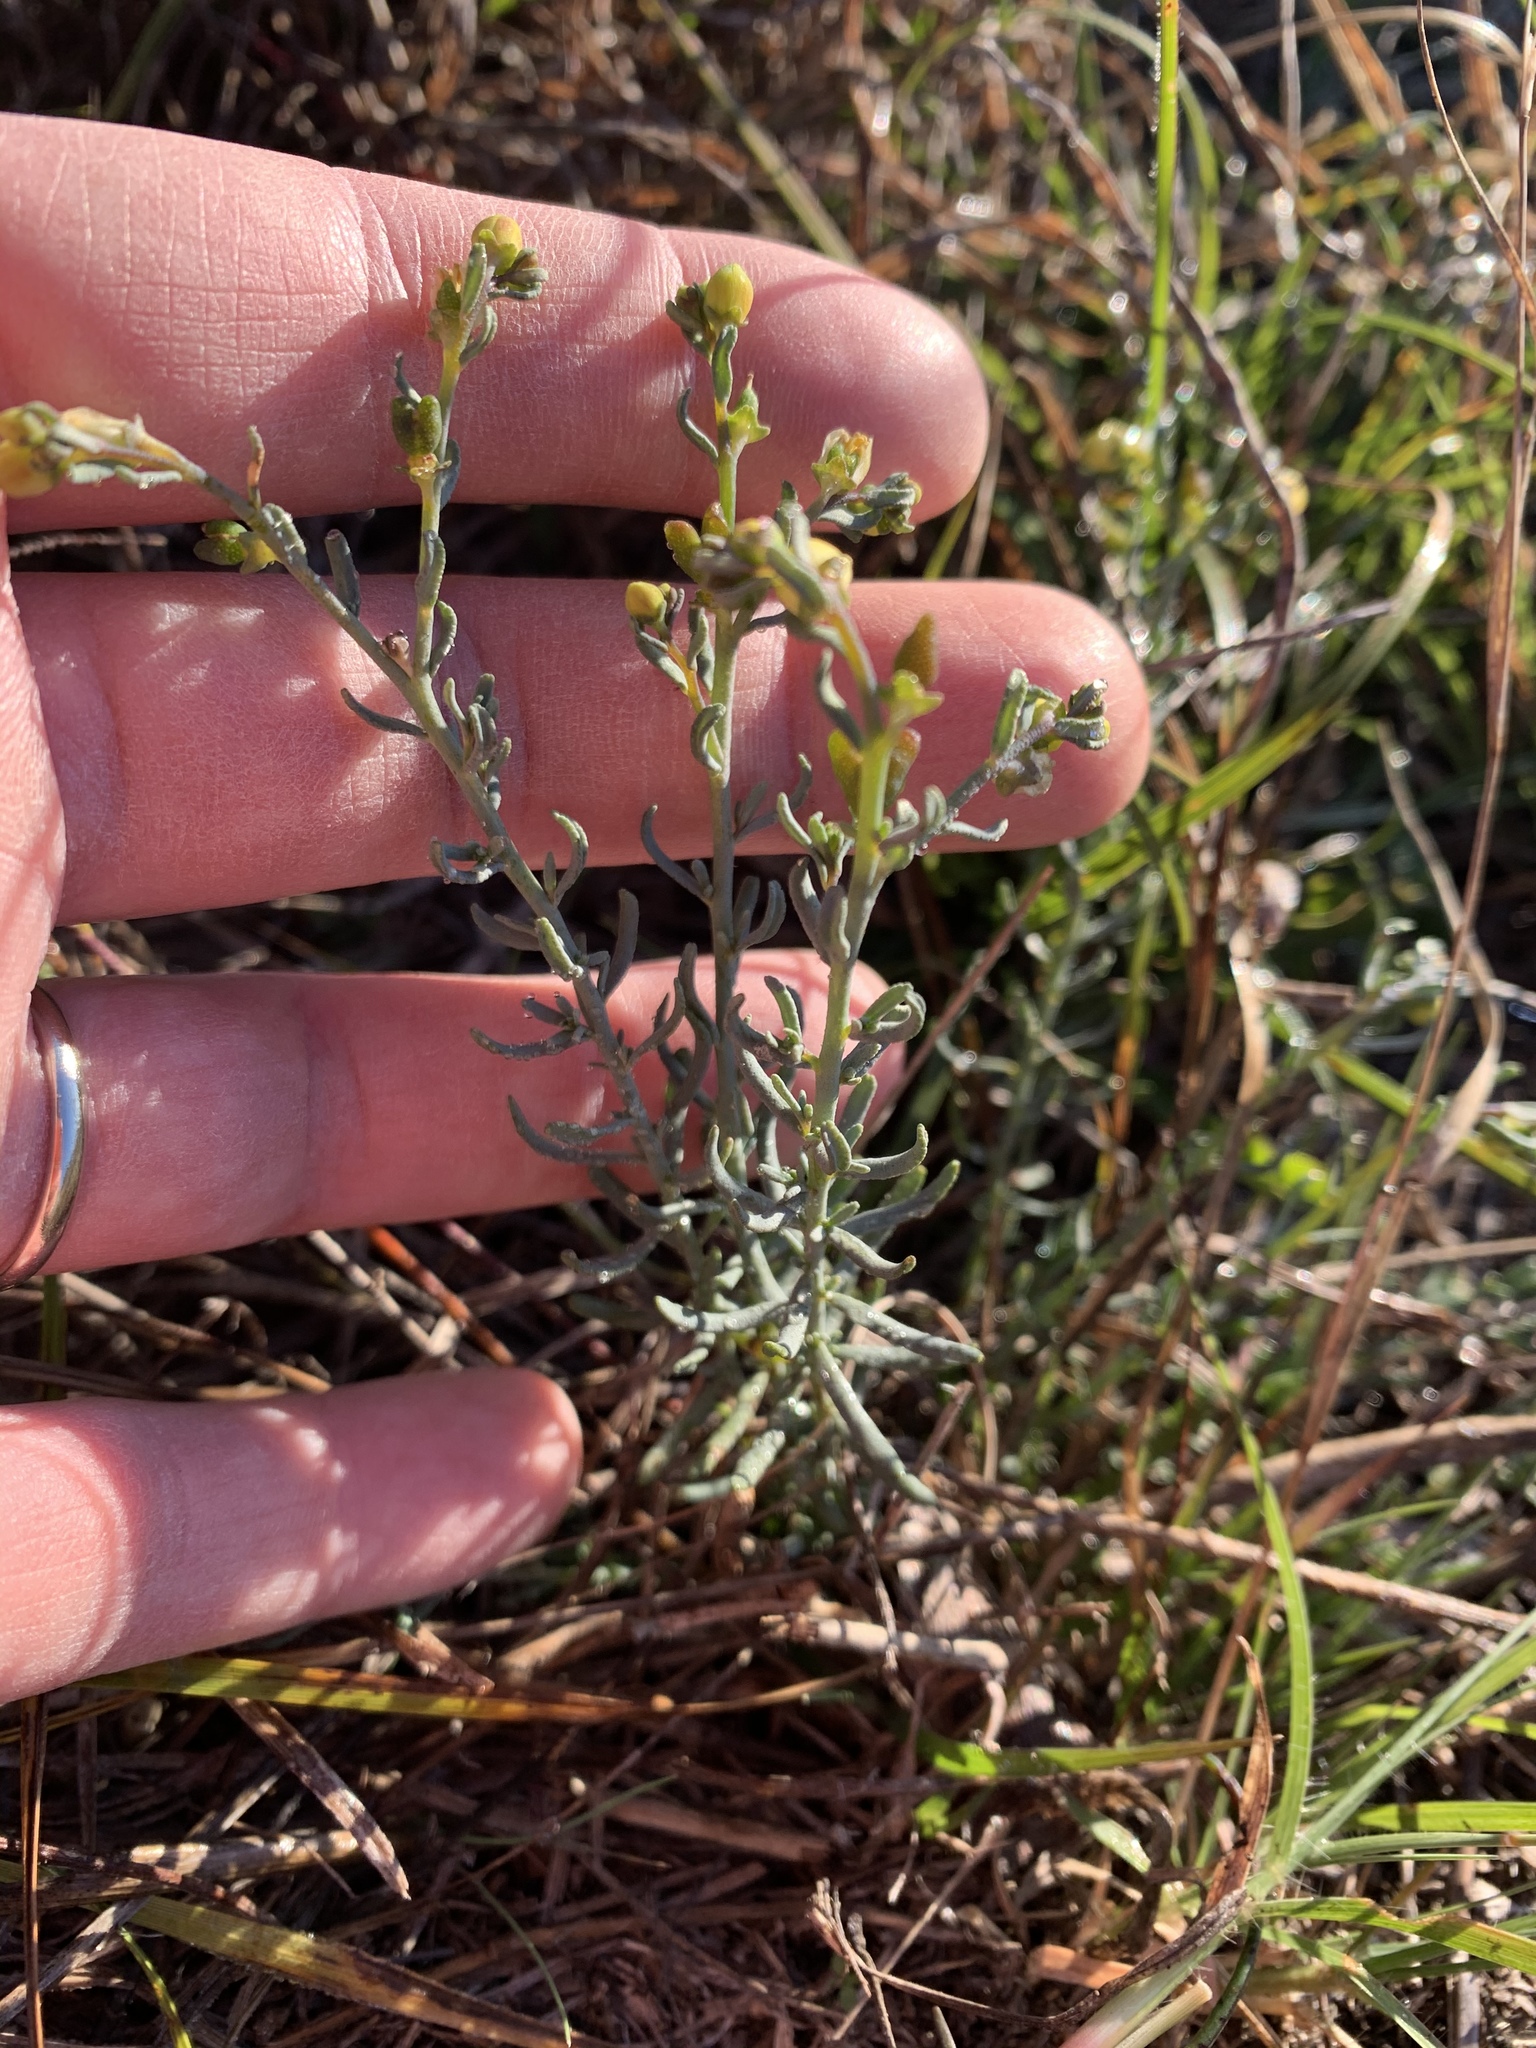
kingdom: Plantae
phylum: Tracheophyta
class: Magnoliopsida
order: Sapindales
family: Rutaceae
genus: Thamnosma
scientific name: Thamnosma texana
